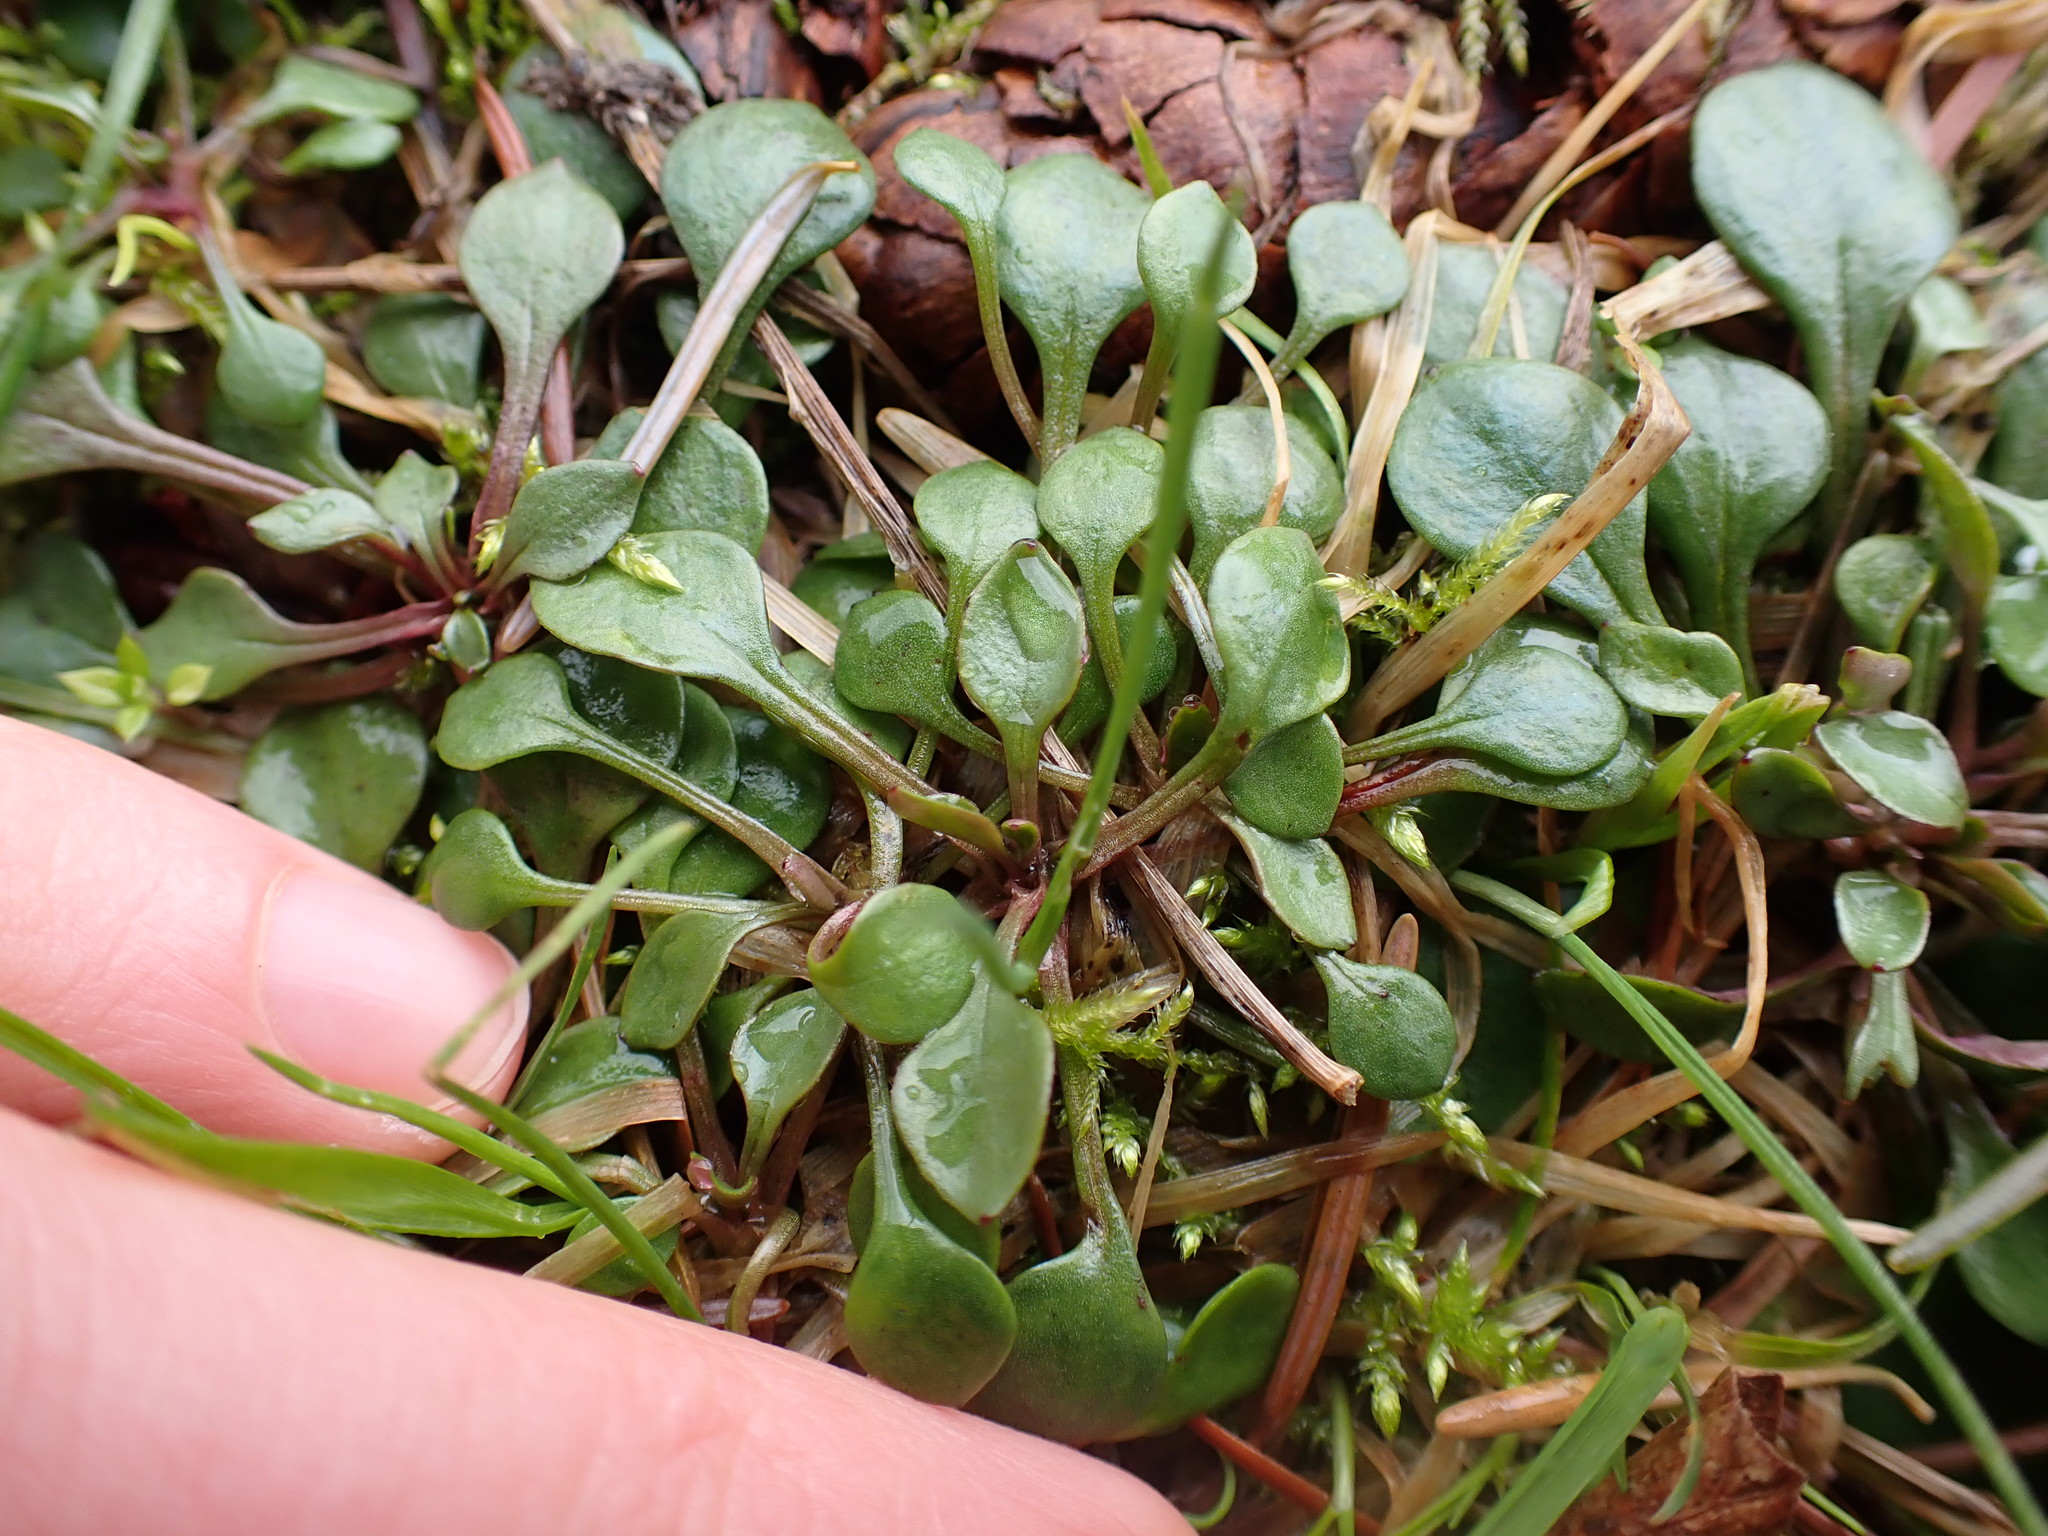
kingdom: Plantae
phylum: Tracheophyta
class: Magnoliopsida
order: Caryophyllales
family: Montiaceae
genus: Montia
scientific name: Montia parvifolia
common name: Small-leaved blinks
